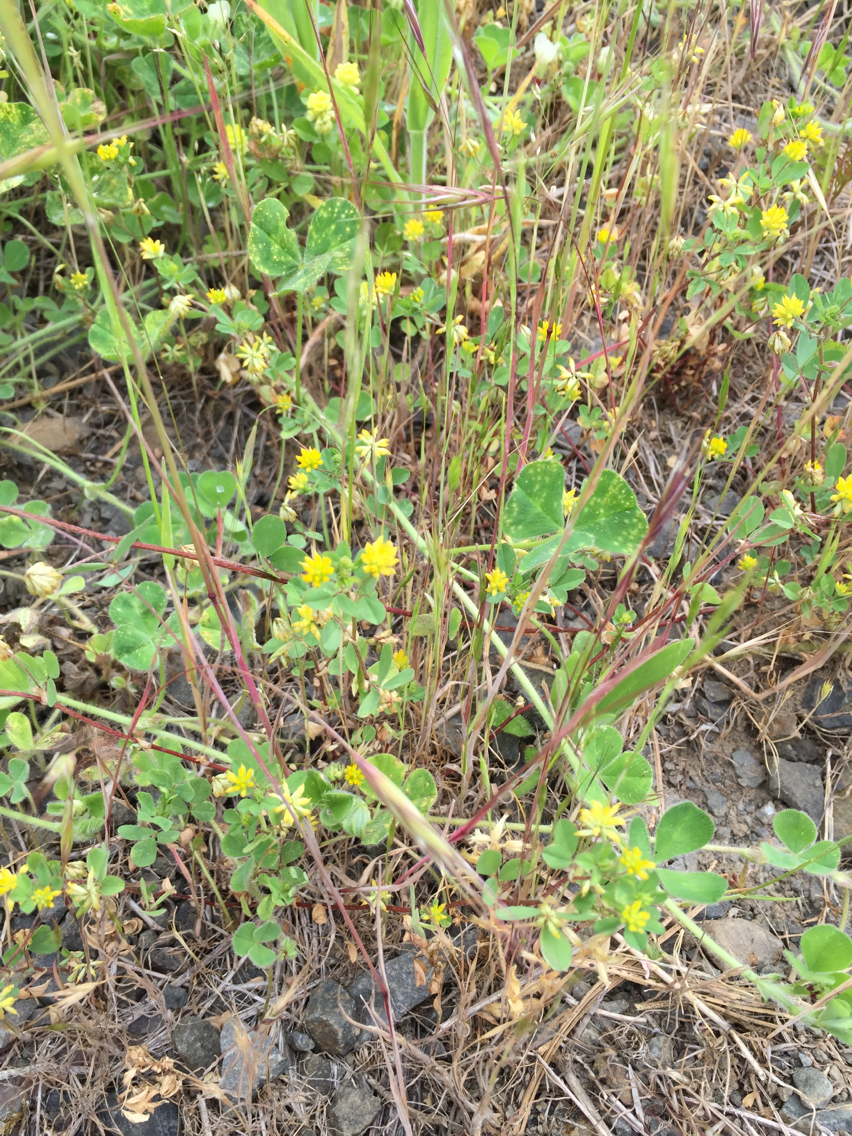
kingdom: Plantae
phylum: Tracheophyta
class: Magnoliopsida
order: Fabales
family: Fabaceae
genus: Trifolium
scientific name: Trifolium dubium
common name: Suckling clover
